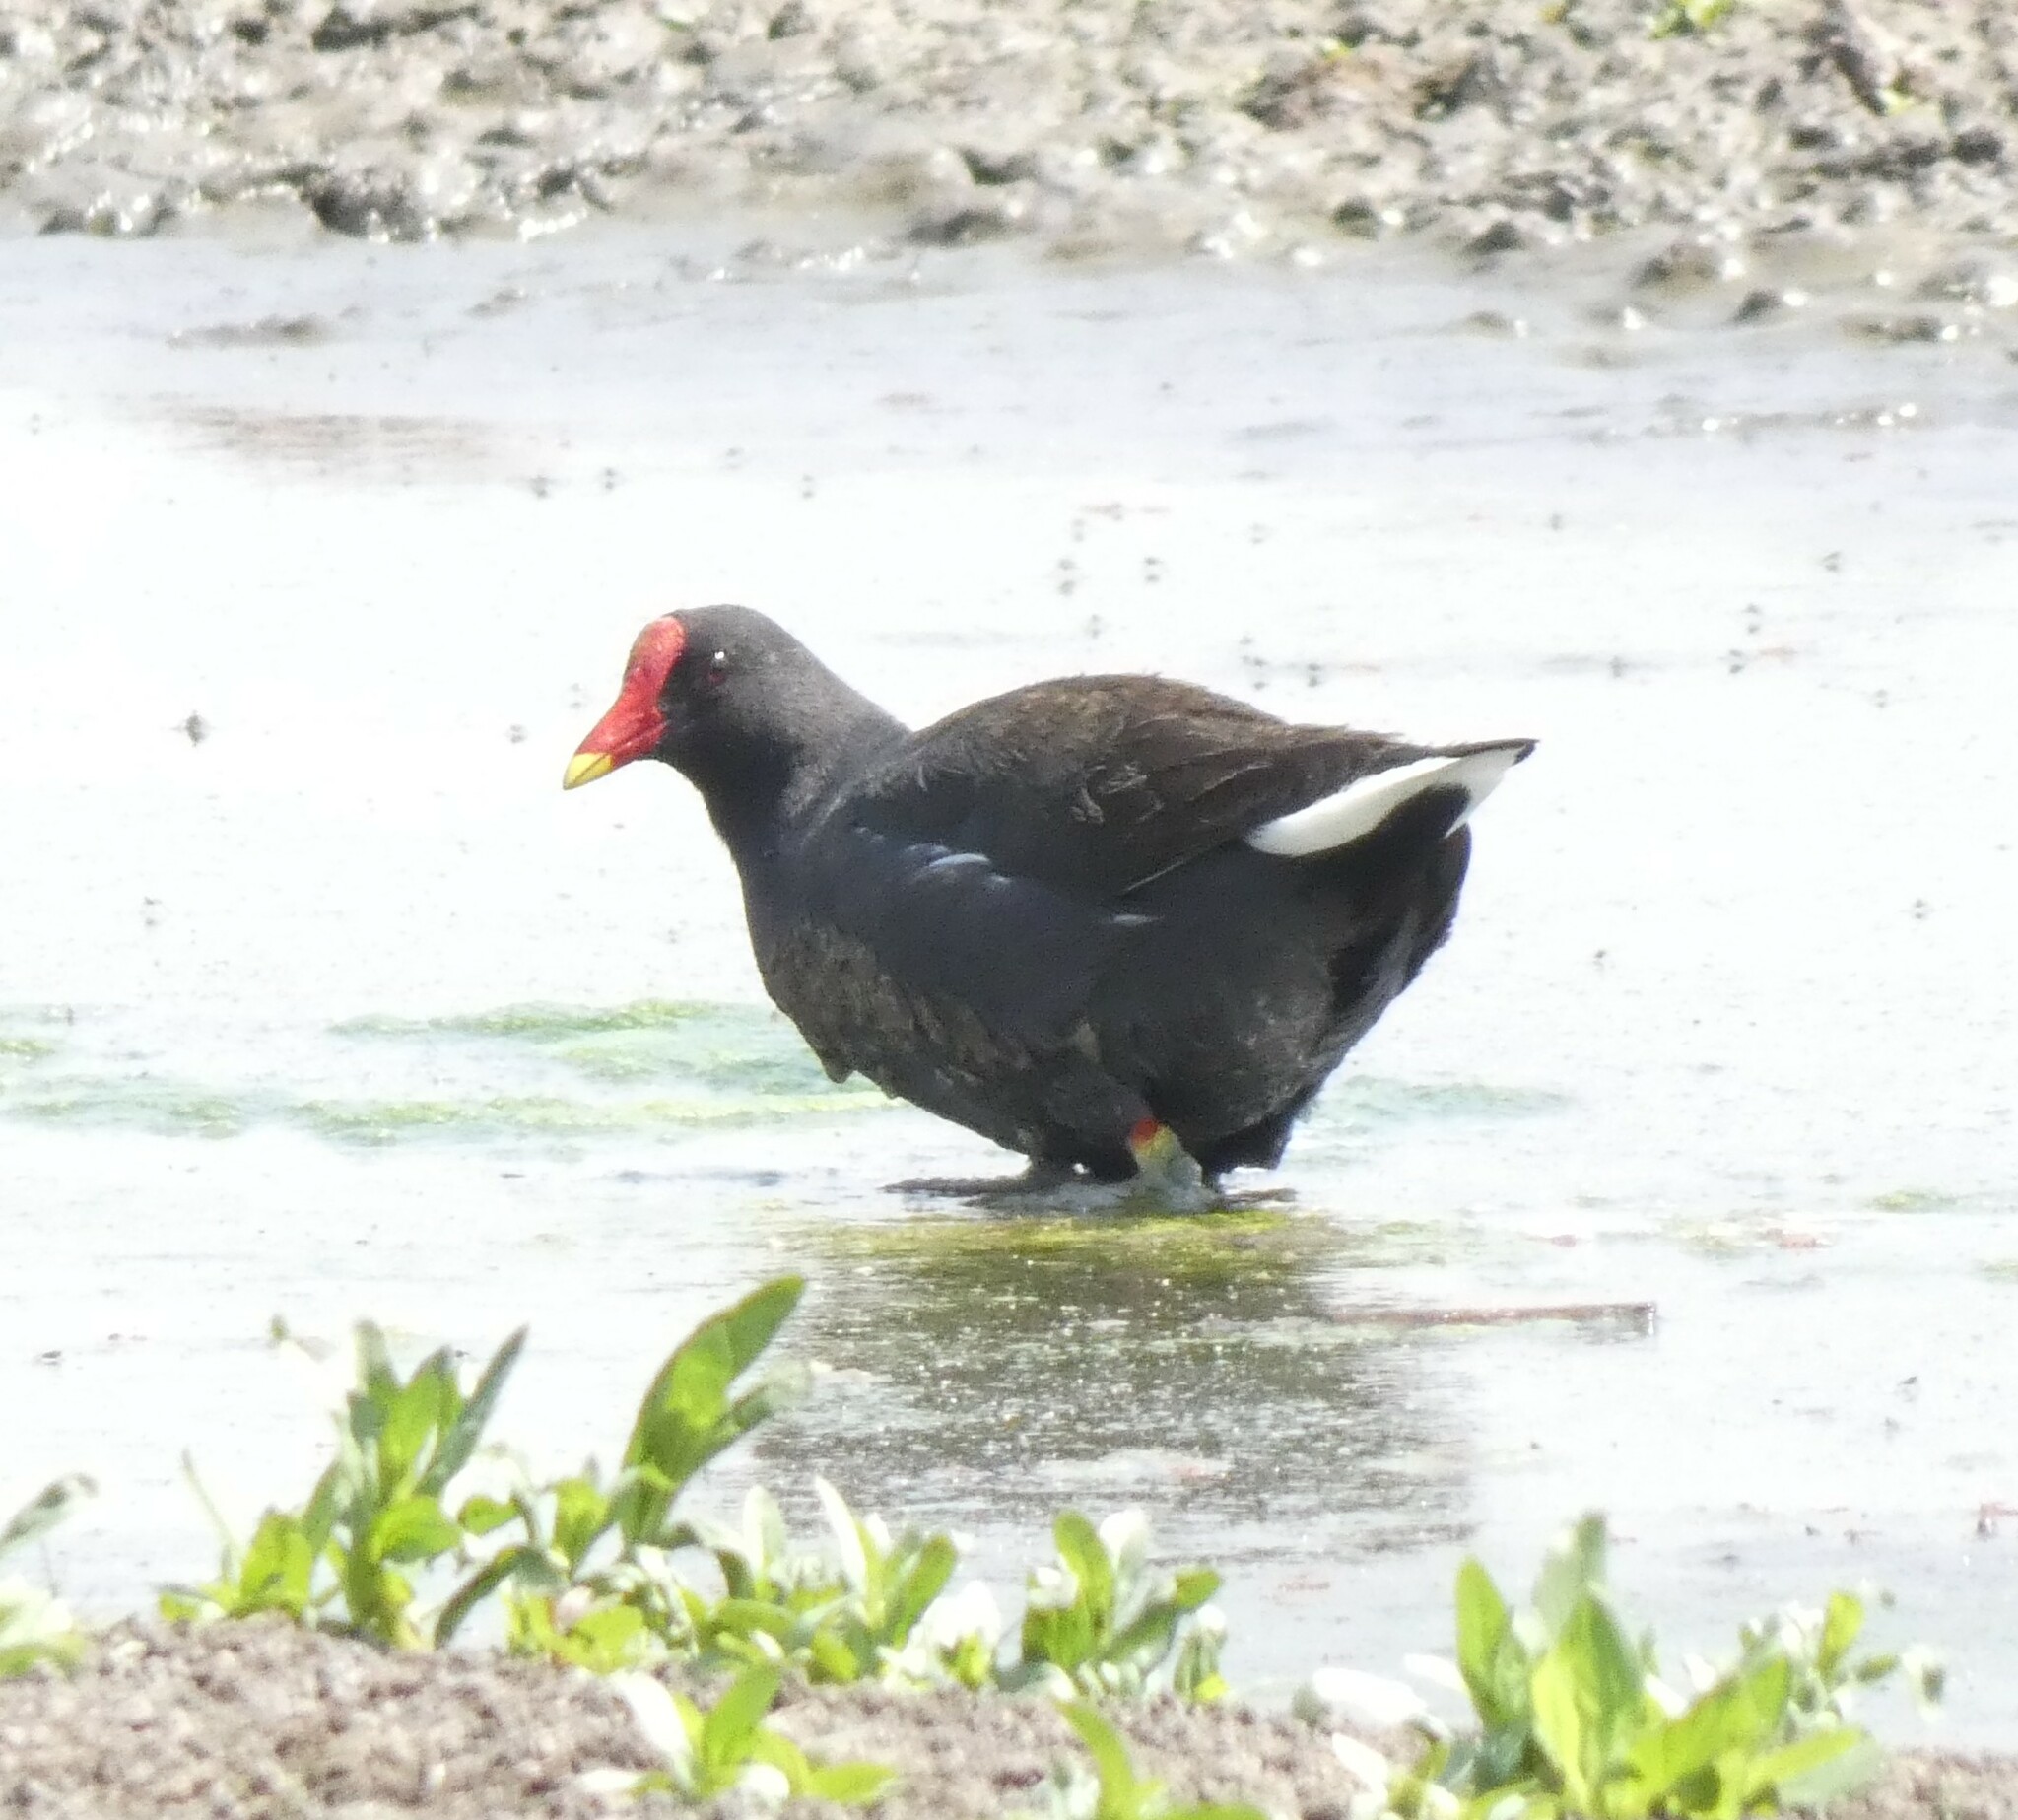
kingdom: Animalia
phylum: Chordata
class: Aves
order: Gruiformes
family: Rallidae
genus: Gallinula
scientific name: Gallinula chloropus
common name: Common moorhen
